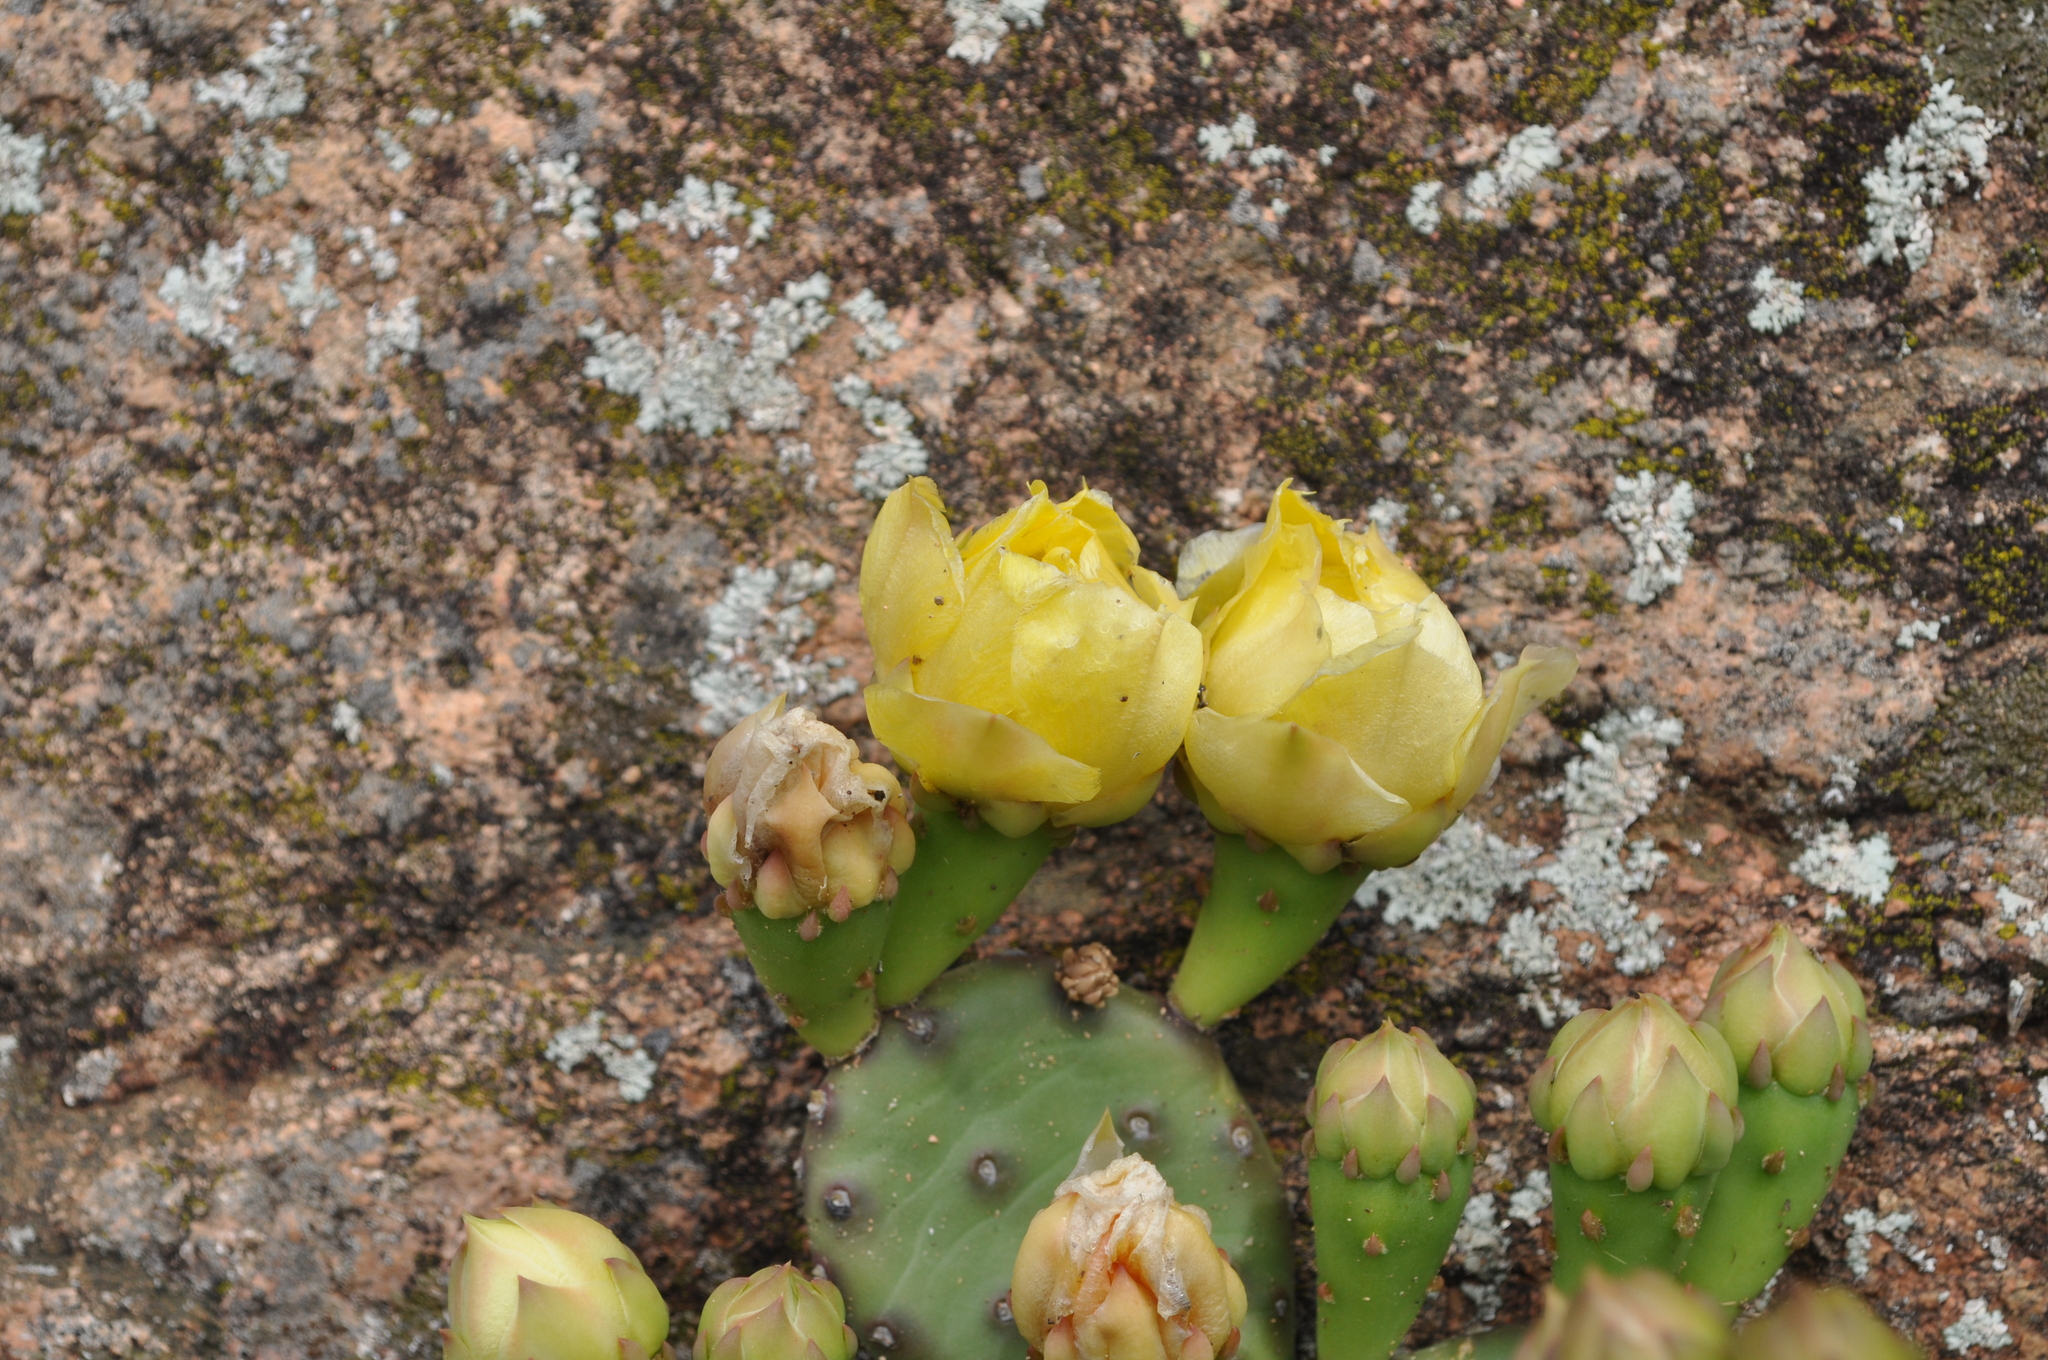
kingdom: Plantae
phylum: Tracheophyta
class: Magnoliopsida
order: Caryophyllales
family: Cactaceae
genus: Opuntia
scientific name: Opuntia mesacantha
